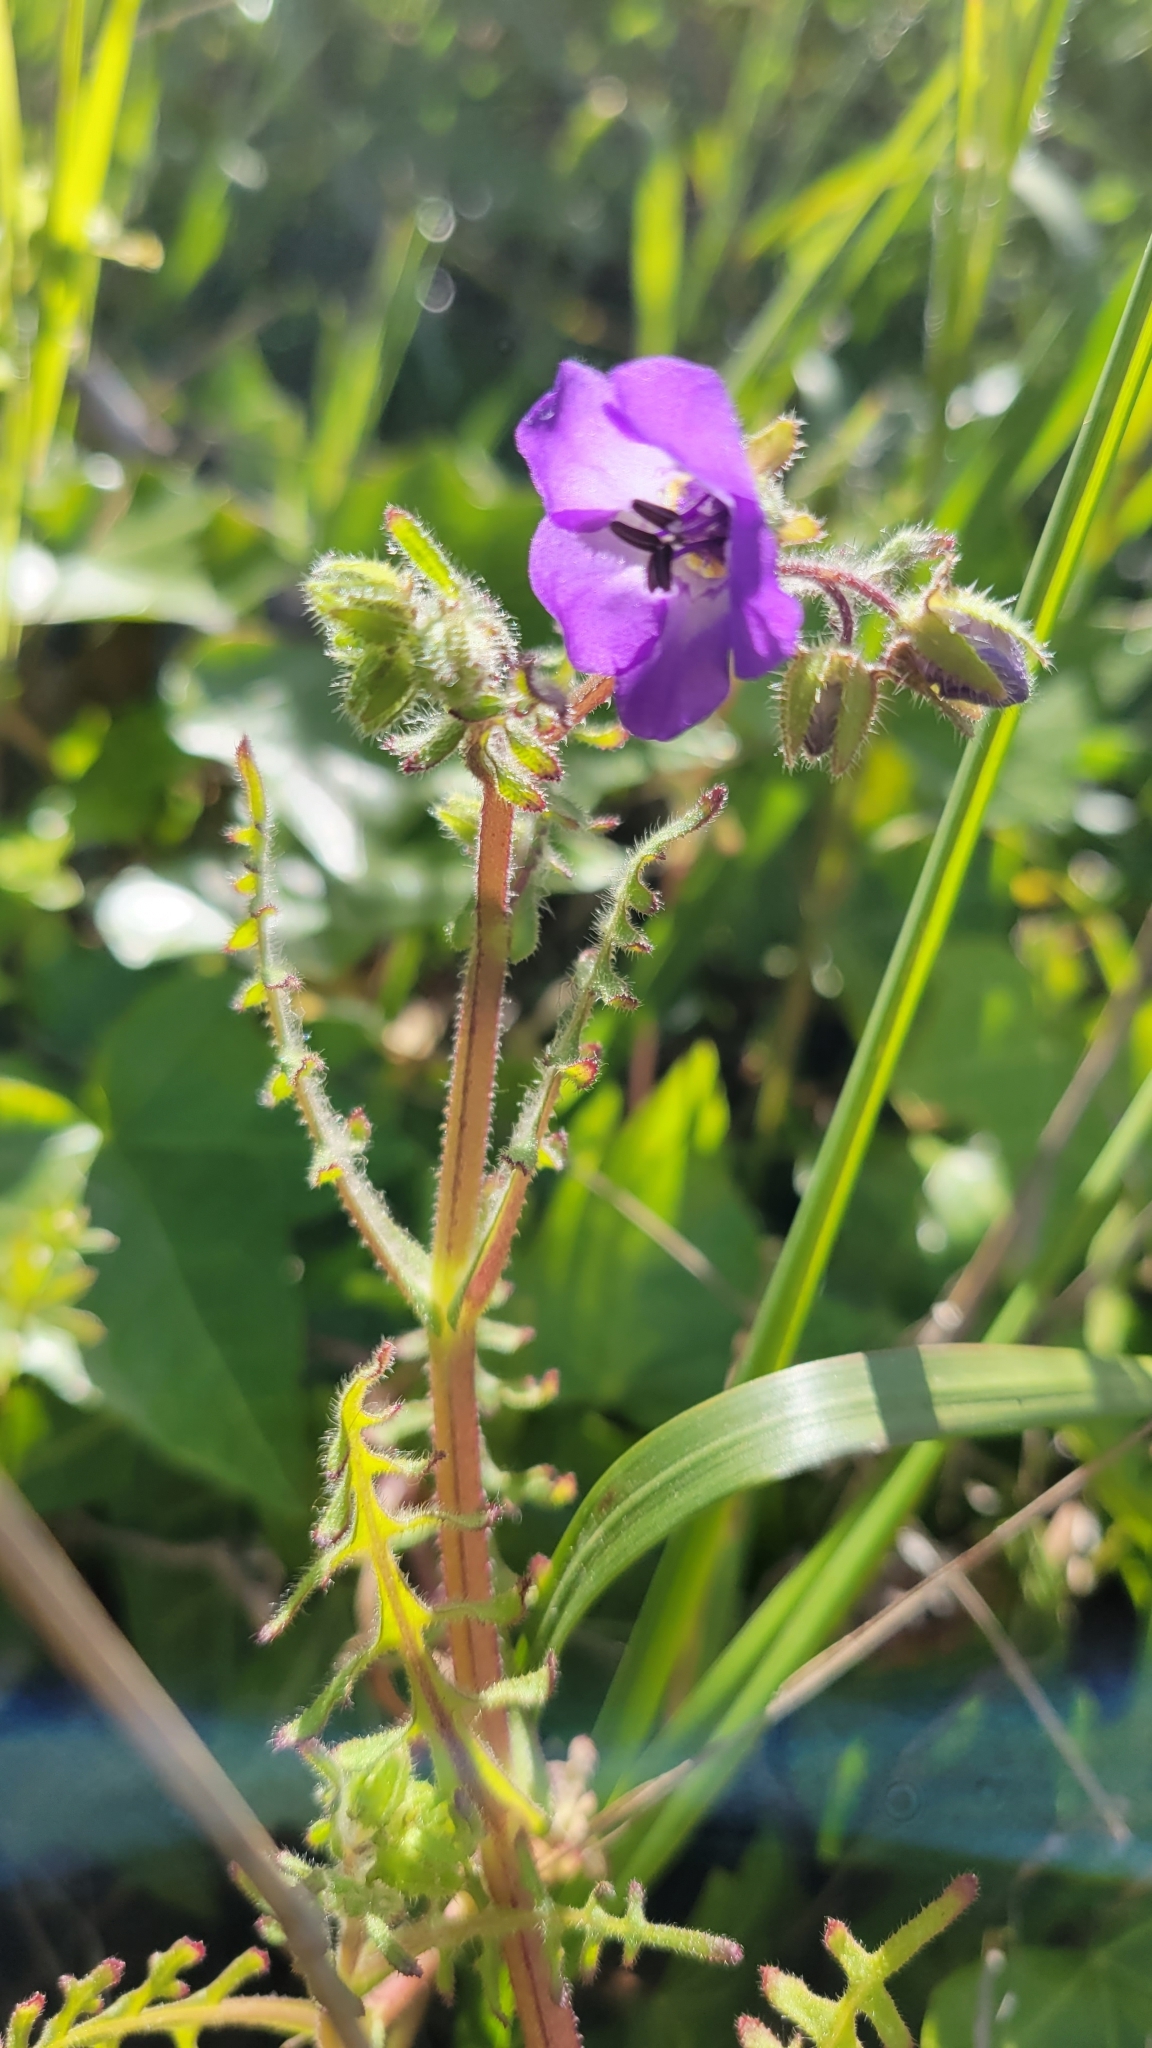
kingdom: Plantae
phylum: Tracheophyta
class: Magnoliopsida
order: Boraginales
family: Hydrophyllaceae
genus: Pholistoma
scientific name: Pholistoma auritum
